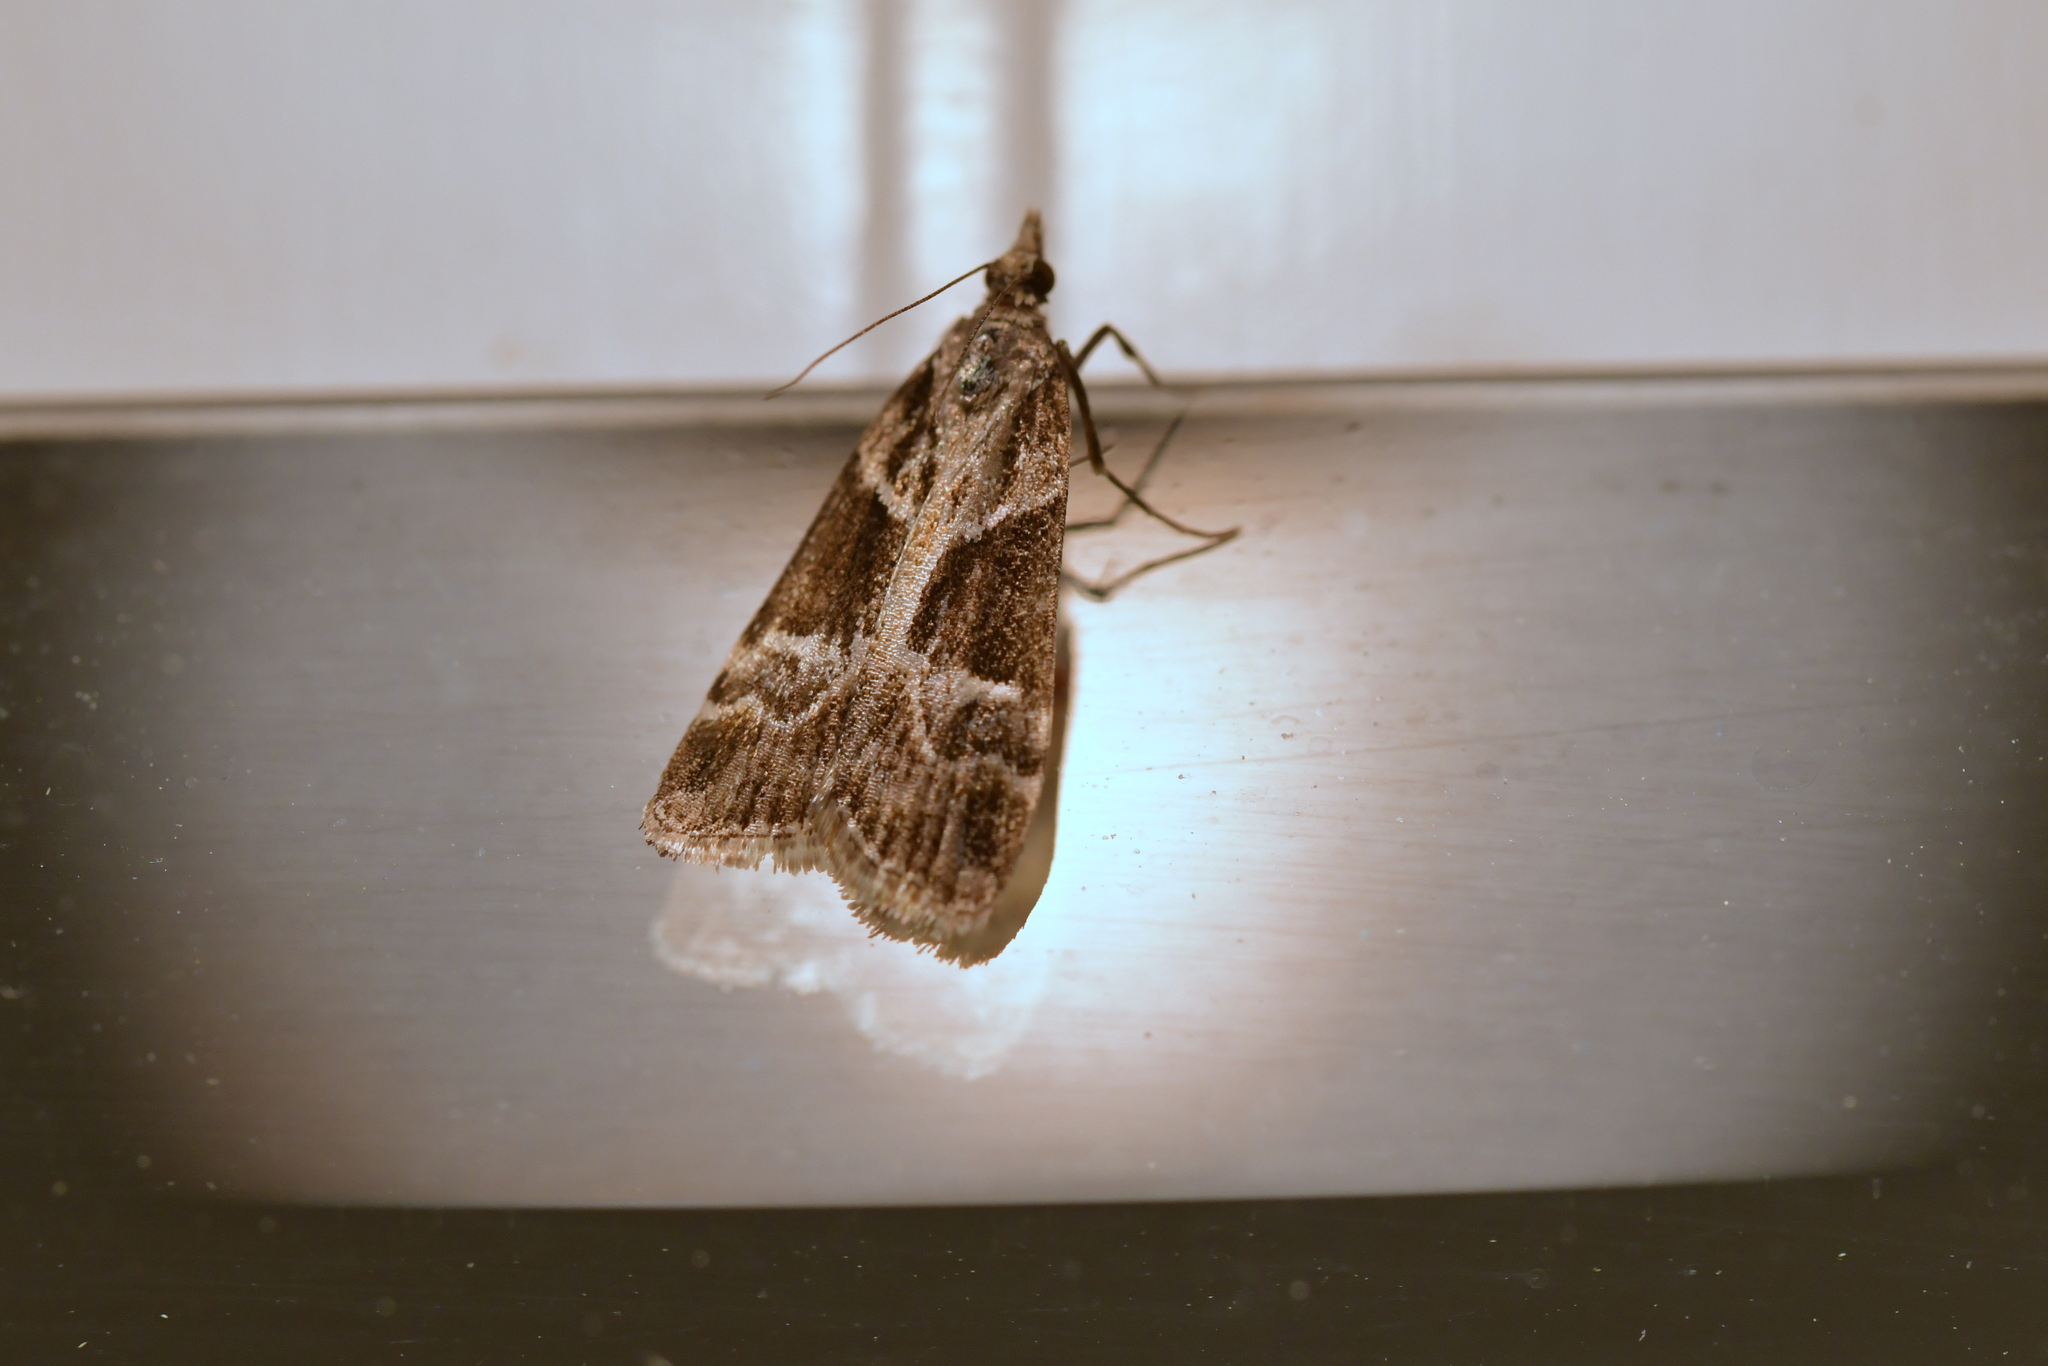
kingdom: Animalia
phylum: Arthropoda
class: Insecta
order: Lepidoptera
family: Crambidae
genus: Eudonia
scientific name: Eudonia melanaegis
